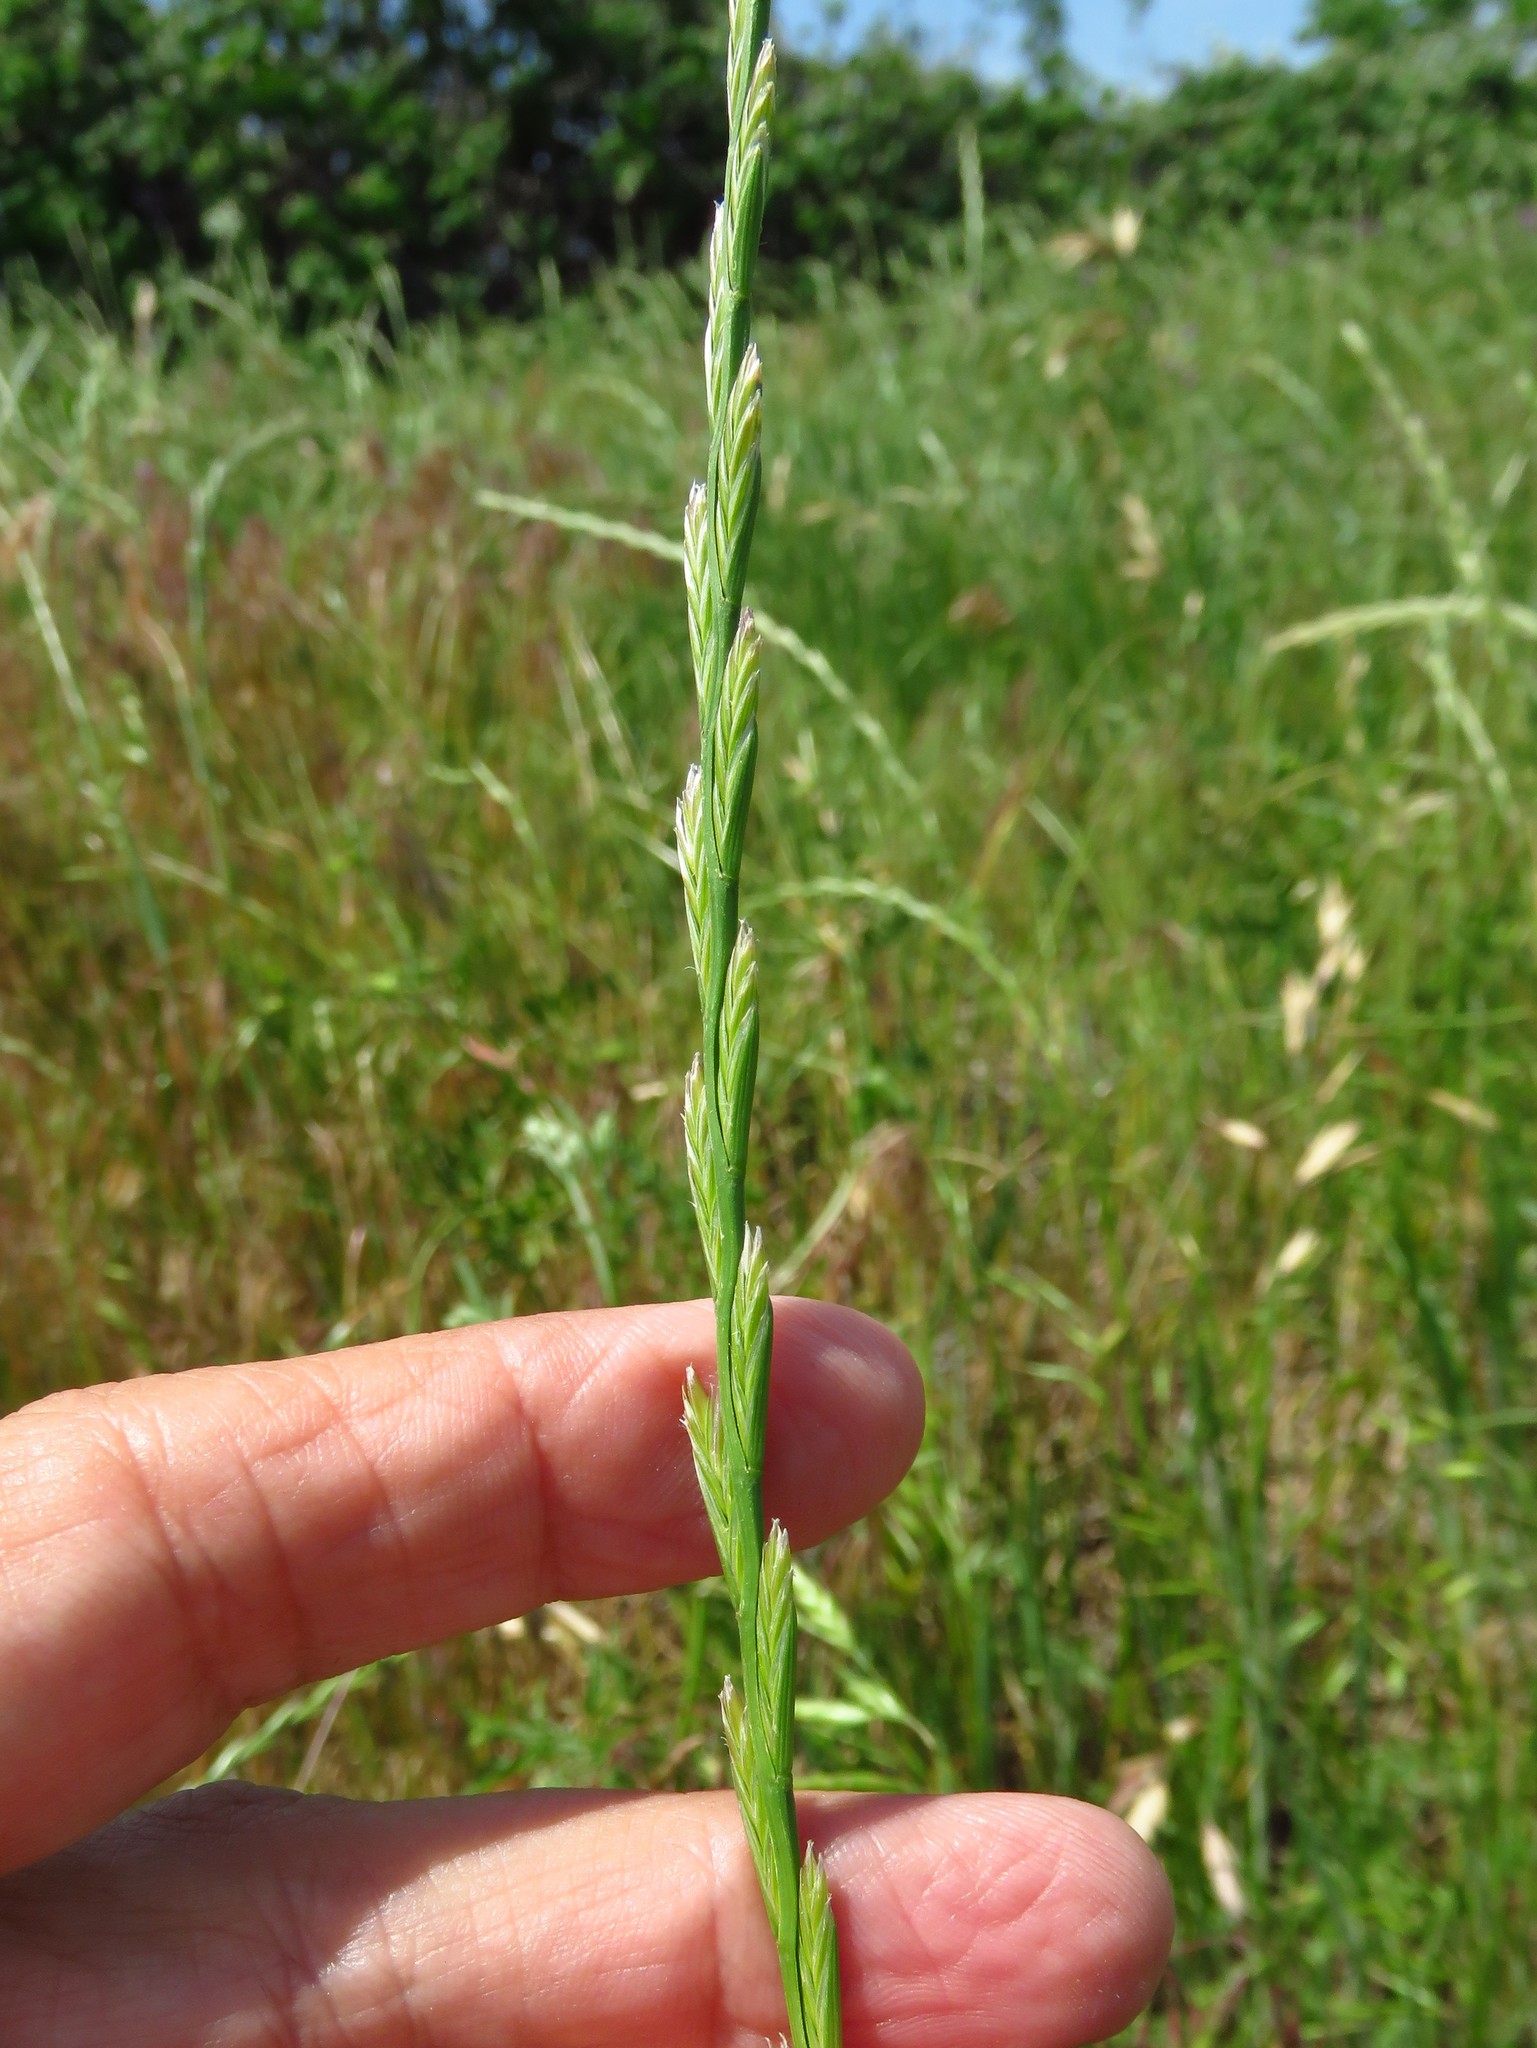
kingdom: Plantae
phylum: Tracheophyta
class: Liliopsida
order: Poales
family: Poaceae
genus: Lolium
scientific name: Lolium perenne
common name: Perennial ryegrass
